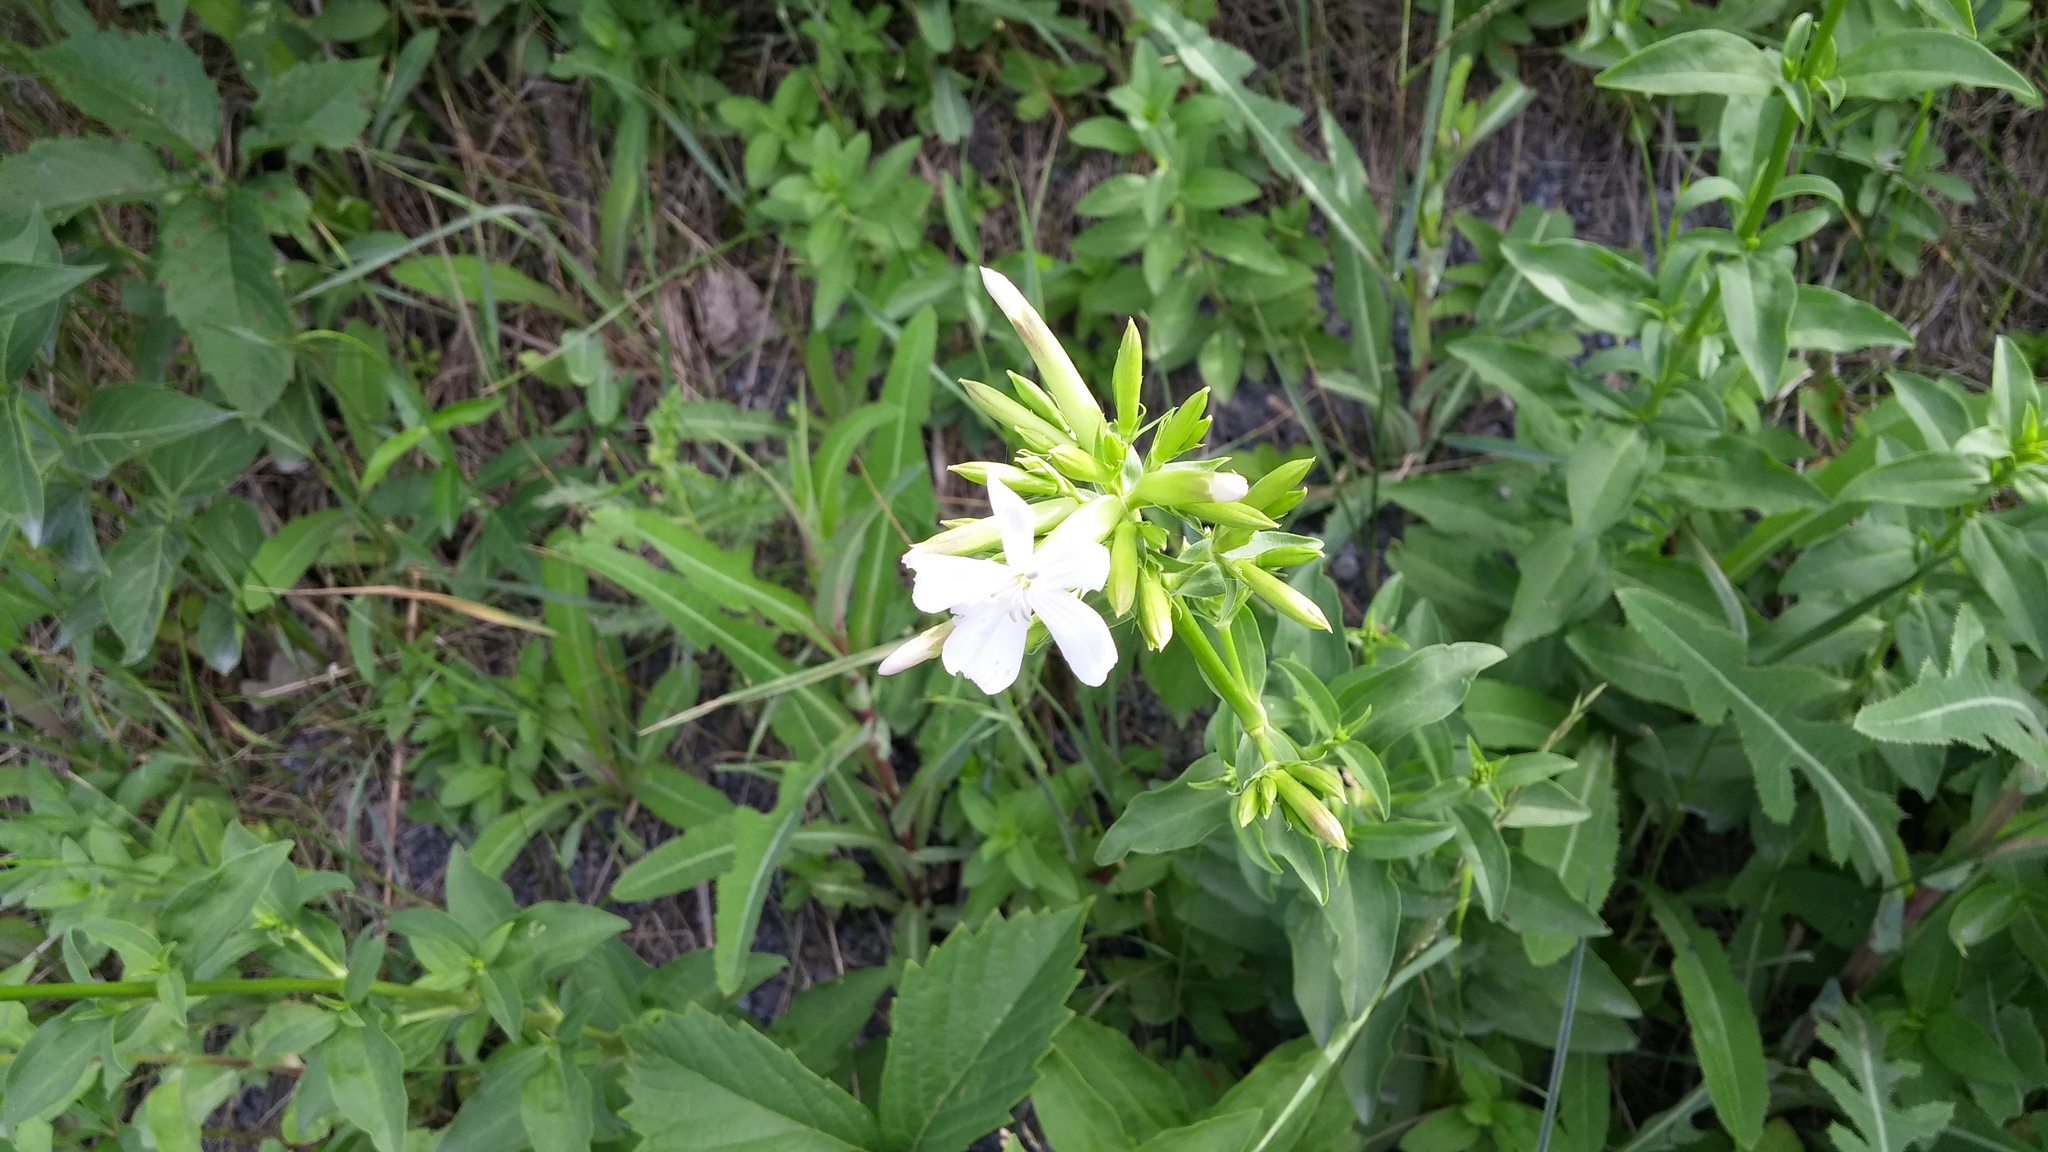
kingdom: Plantae
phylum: Tracheophyta
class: Magnoliopsida
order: Caryophyllales
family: Caryophyllaceae
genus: Saponaria
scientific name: Saponaria officinalis
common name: Soapwort
